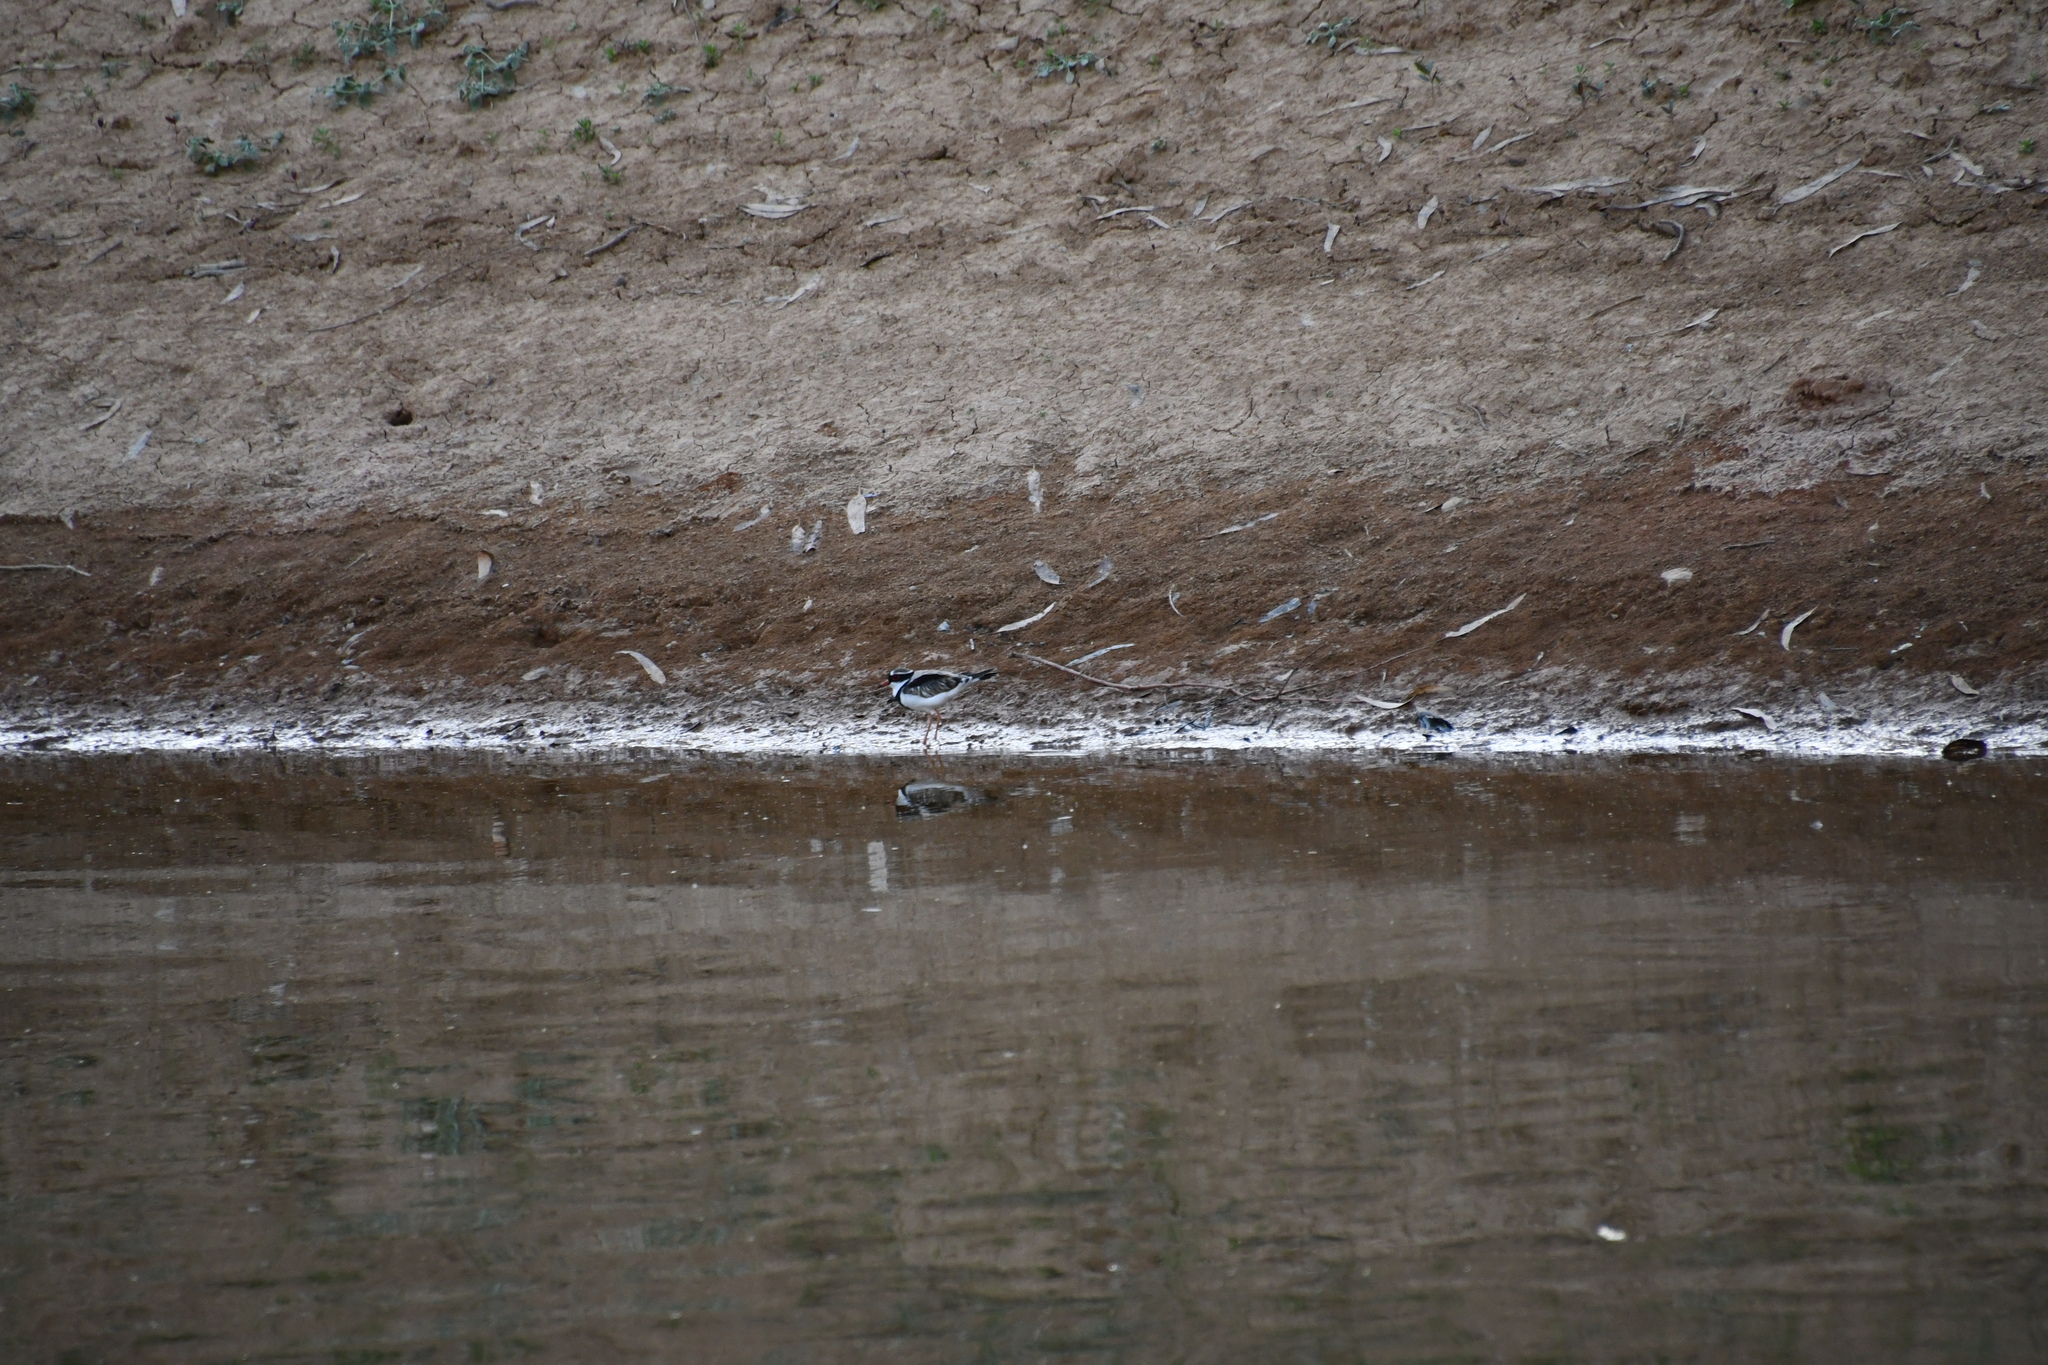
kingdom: Animalia
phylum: Chordata
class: Aves
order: Charadriiformes
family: Charadriidae
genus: Elseyornis
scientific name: Elseyornis melanops
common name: Black-fronted dotterel
